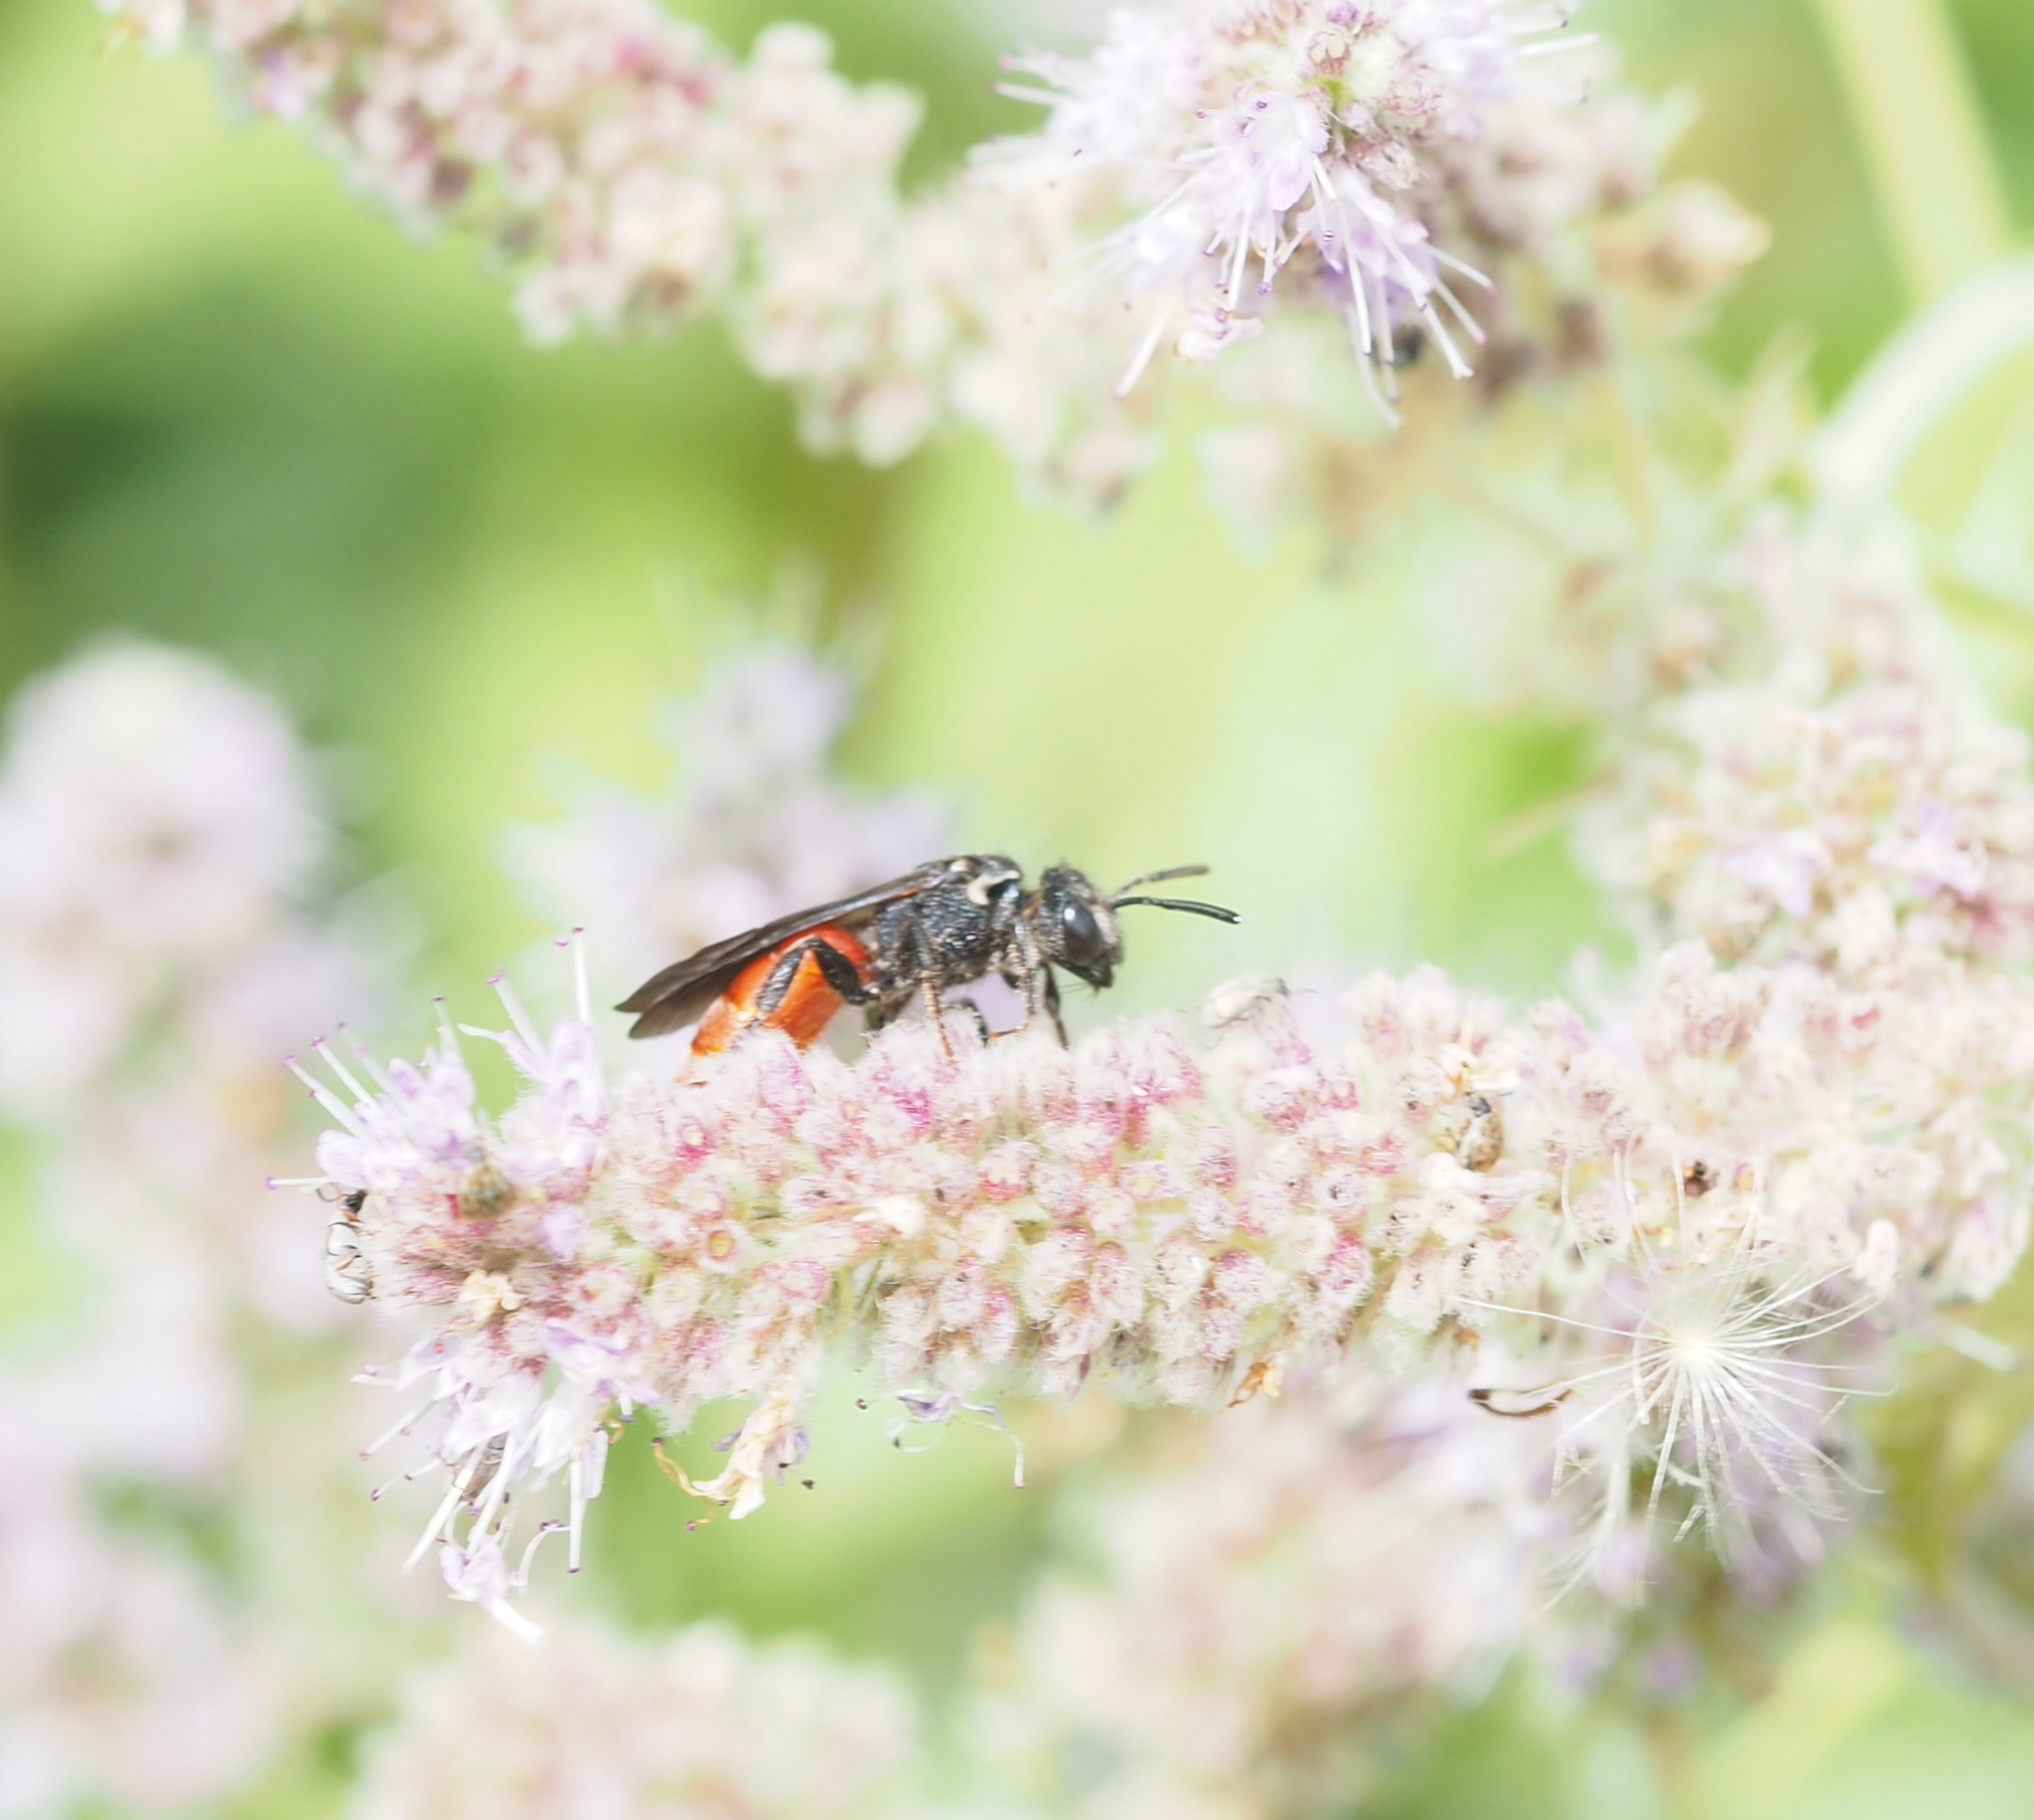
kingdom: Animalia
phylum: Arthropoda
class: Insecta
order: Hymenoptera
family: Halictidae
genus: Sphecodes
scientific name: Sphecodes albilabris
